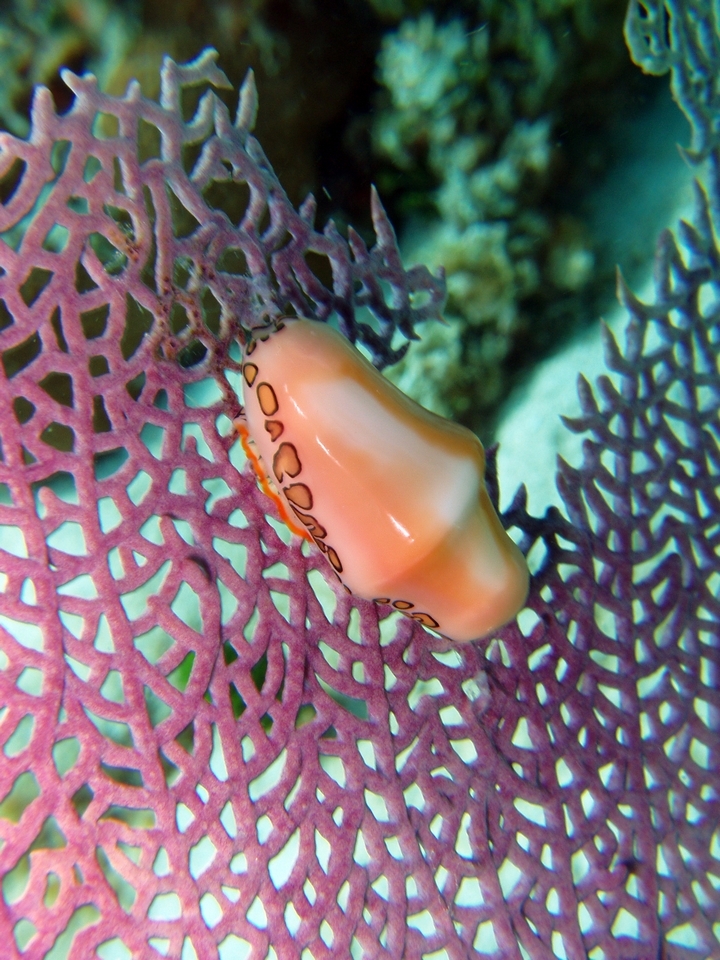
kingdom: Animalia
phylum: Mollusca
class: Gastropoda
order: Littorinimorpha
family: Ovulidae
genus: Cyphoma
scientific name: Cyphoma gibbosum
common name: Flamingo tongue
